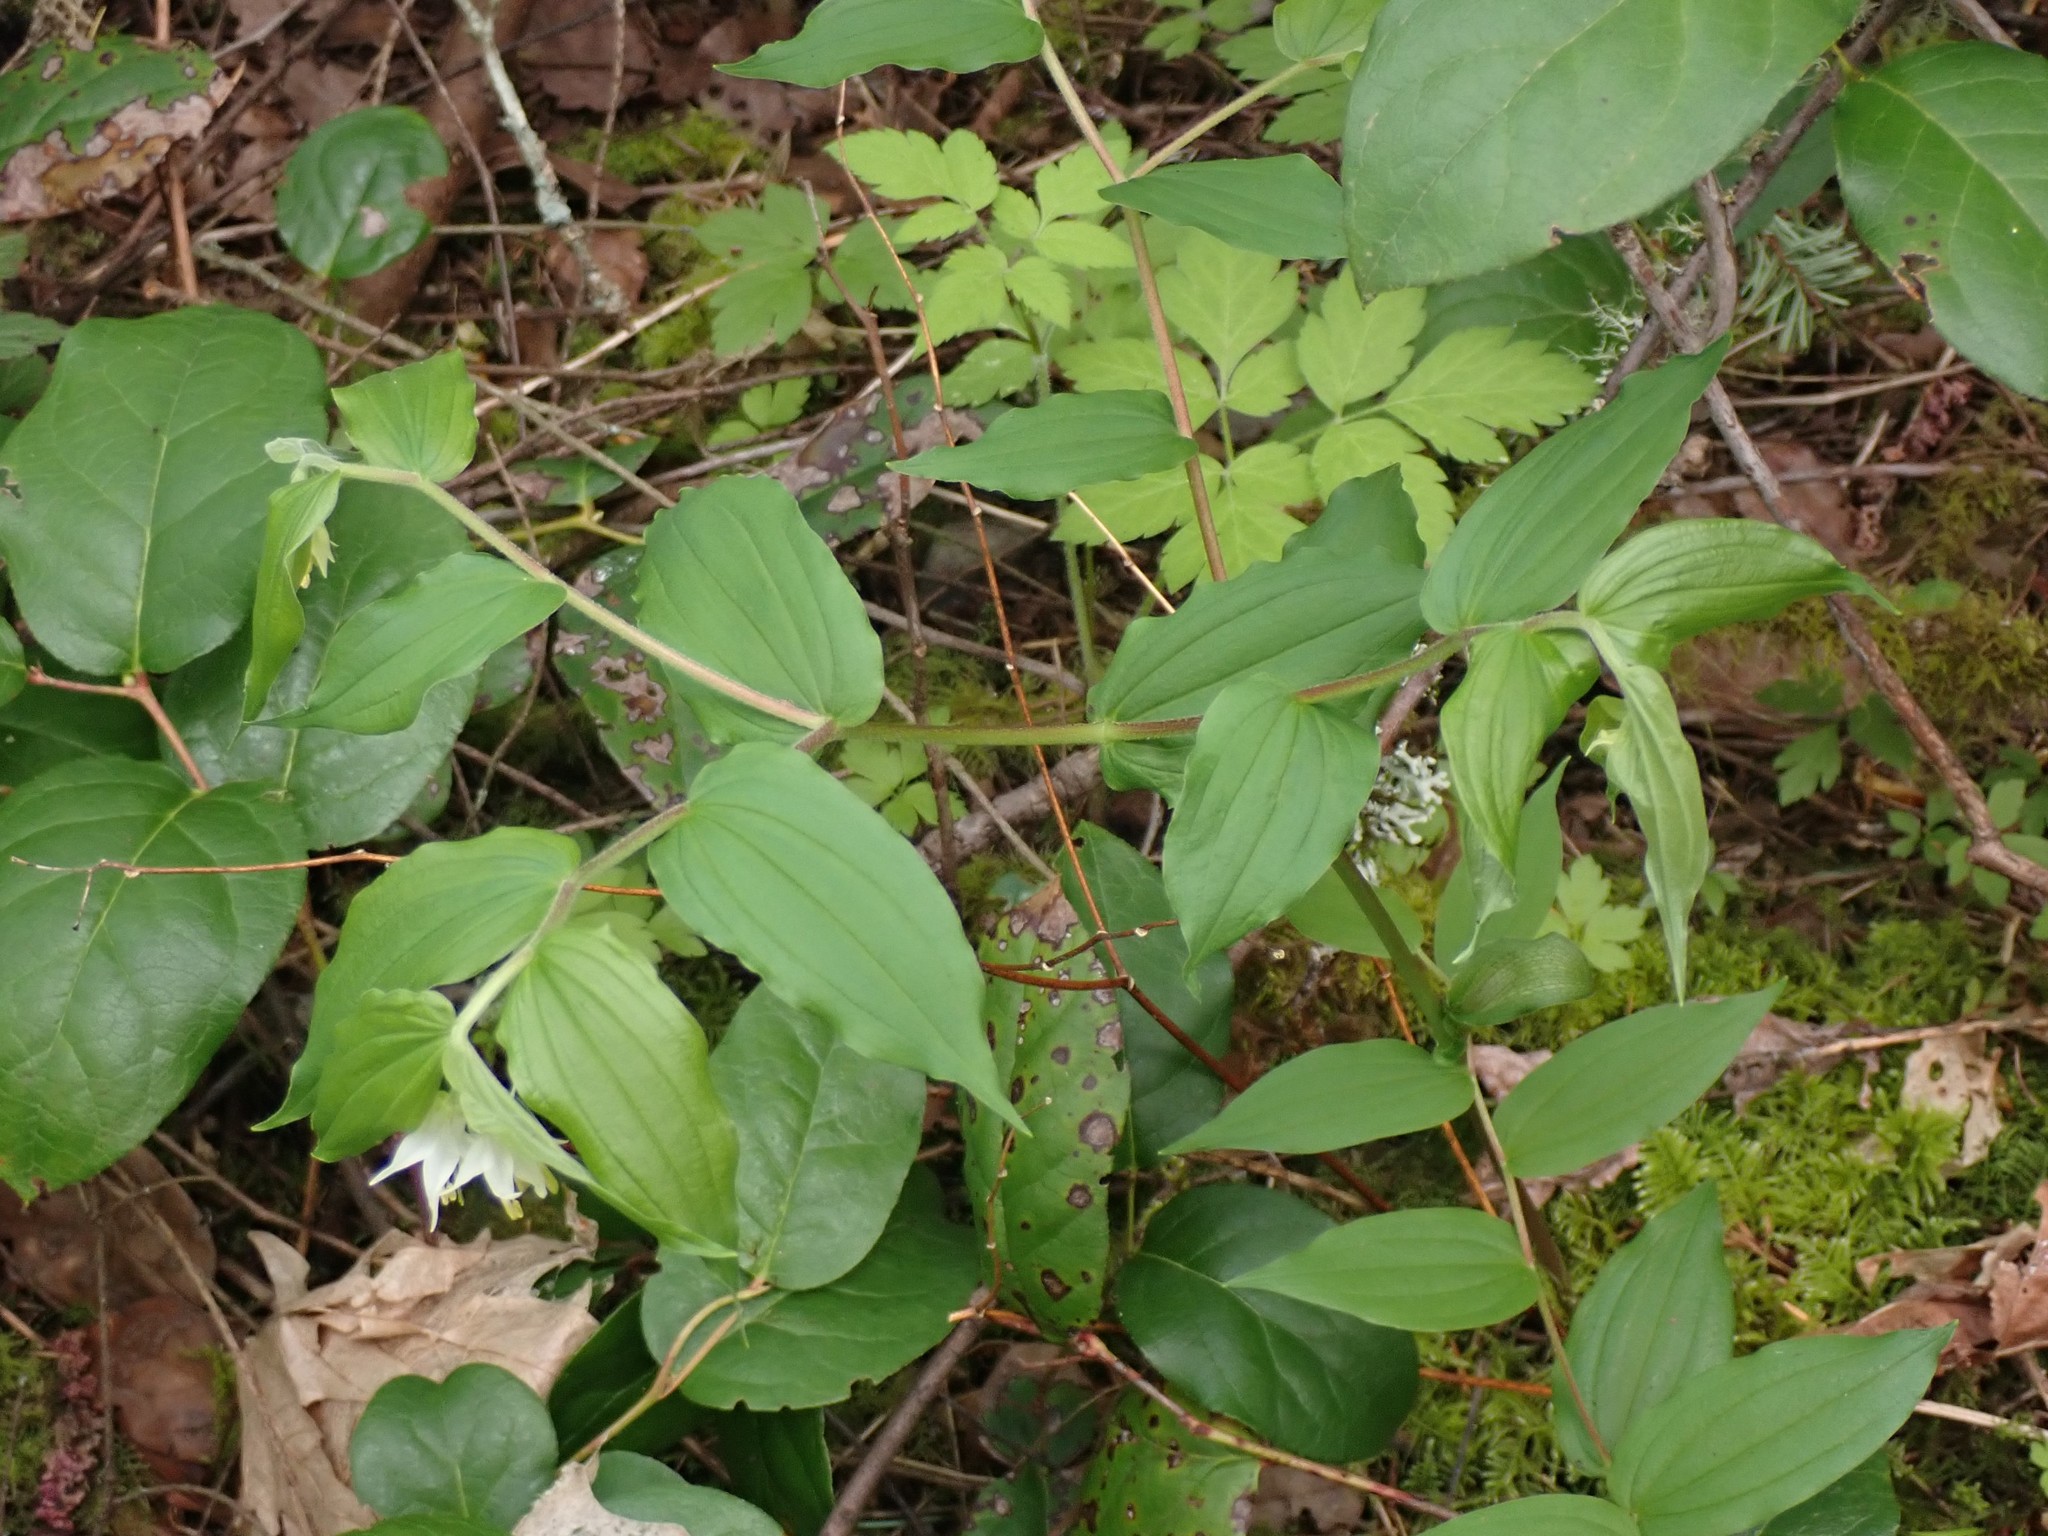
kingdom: Plantae
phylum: Tracheophyta
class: Liliopsida
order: Liliales
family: Liliaceae
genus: Prosartes
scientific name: Prosartes hookeri
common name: Fairy-bells
